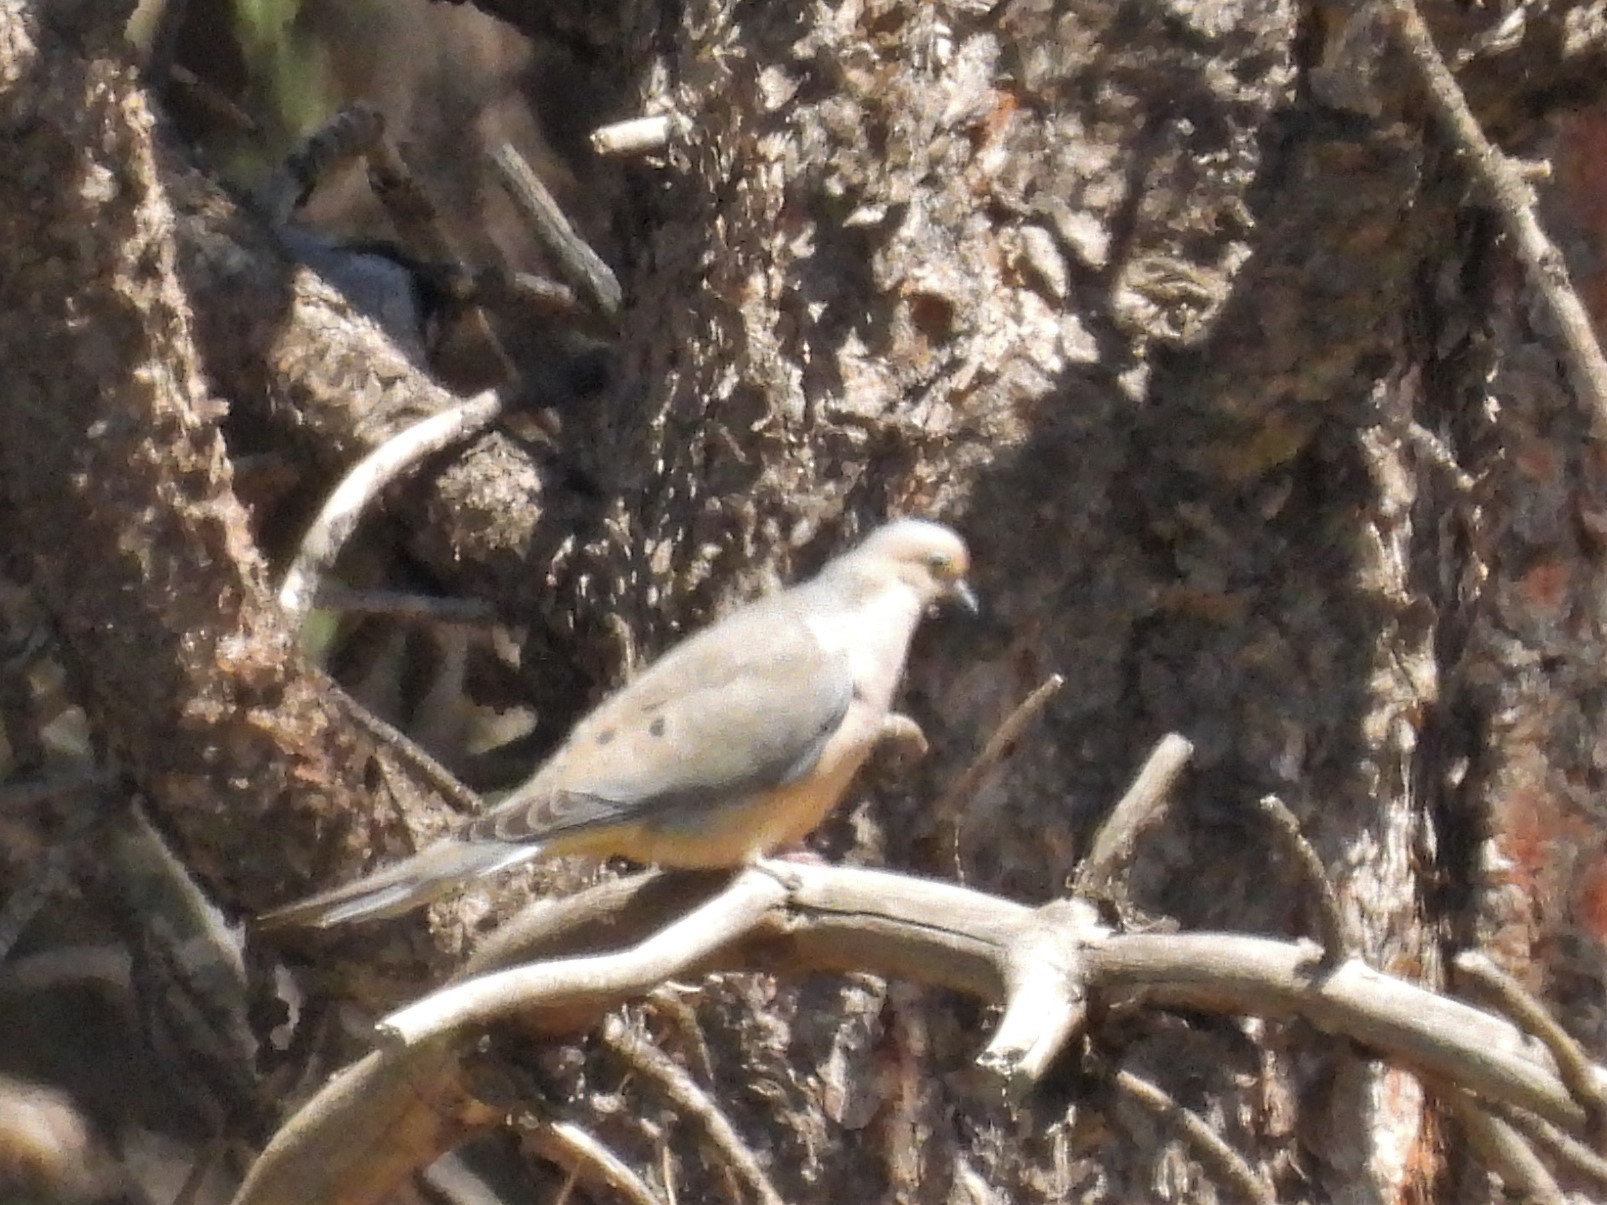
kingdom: Animalia
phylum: Chordata
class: Aves
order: Columbiformes
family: Columbidae
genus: Zenaida
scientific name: Zenaida macroura
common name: Mourning dove
